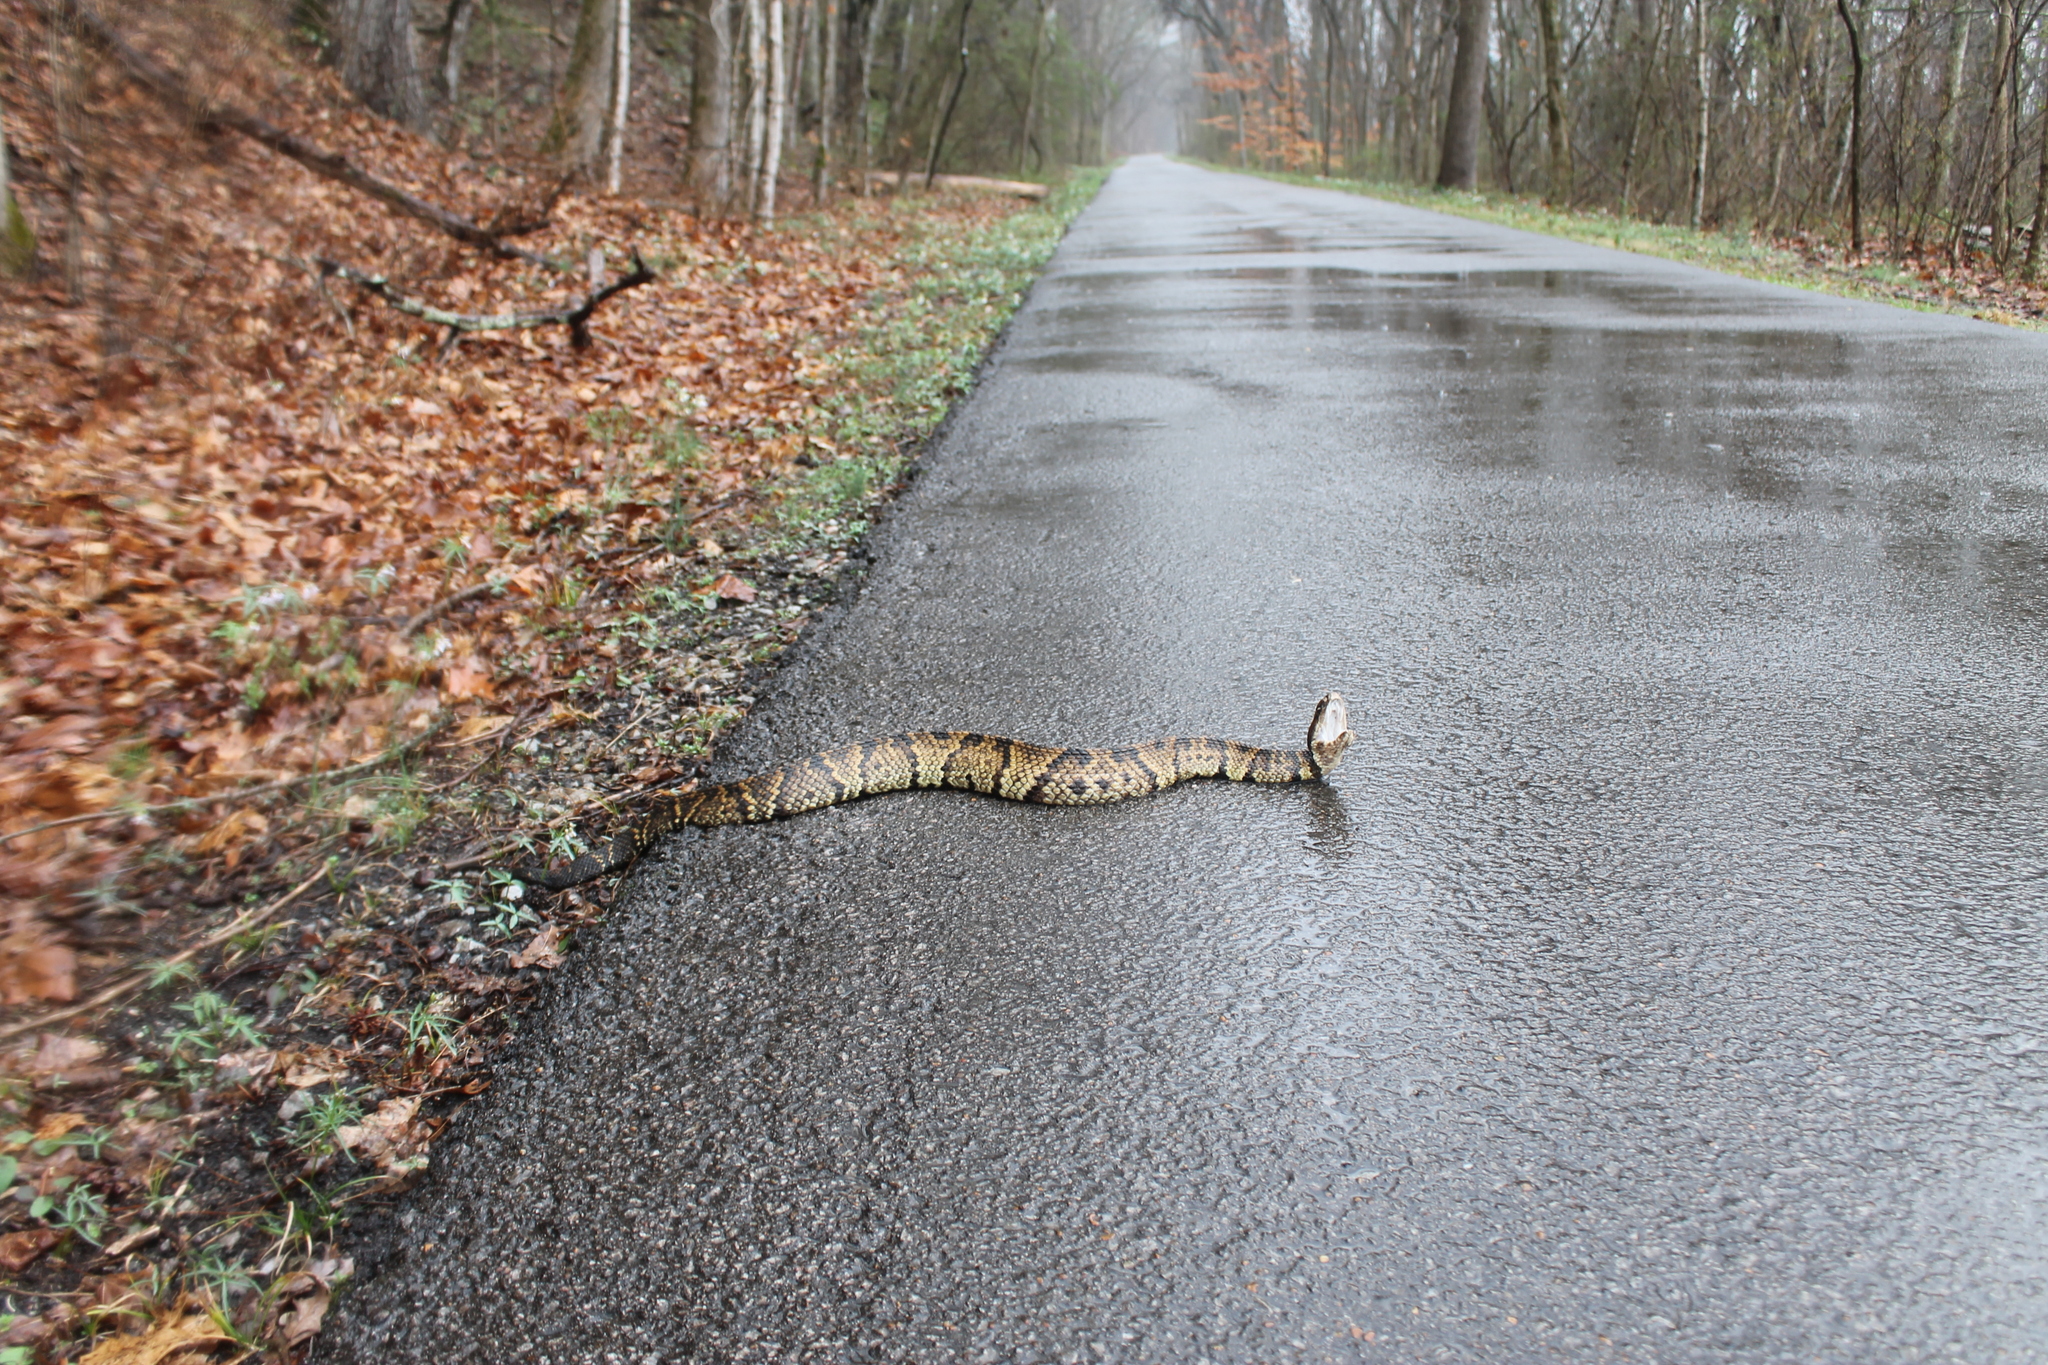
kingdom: Animalia
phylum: Chordata
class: Squamata
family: Viperidae
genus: Agkistrodon
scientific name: Agkistrodon piscivorus
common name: Cottonmouth
